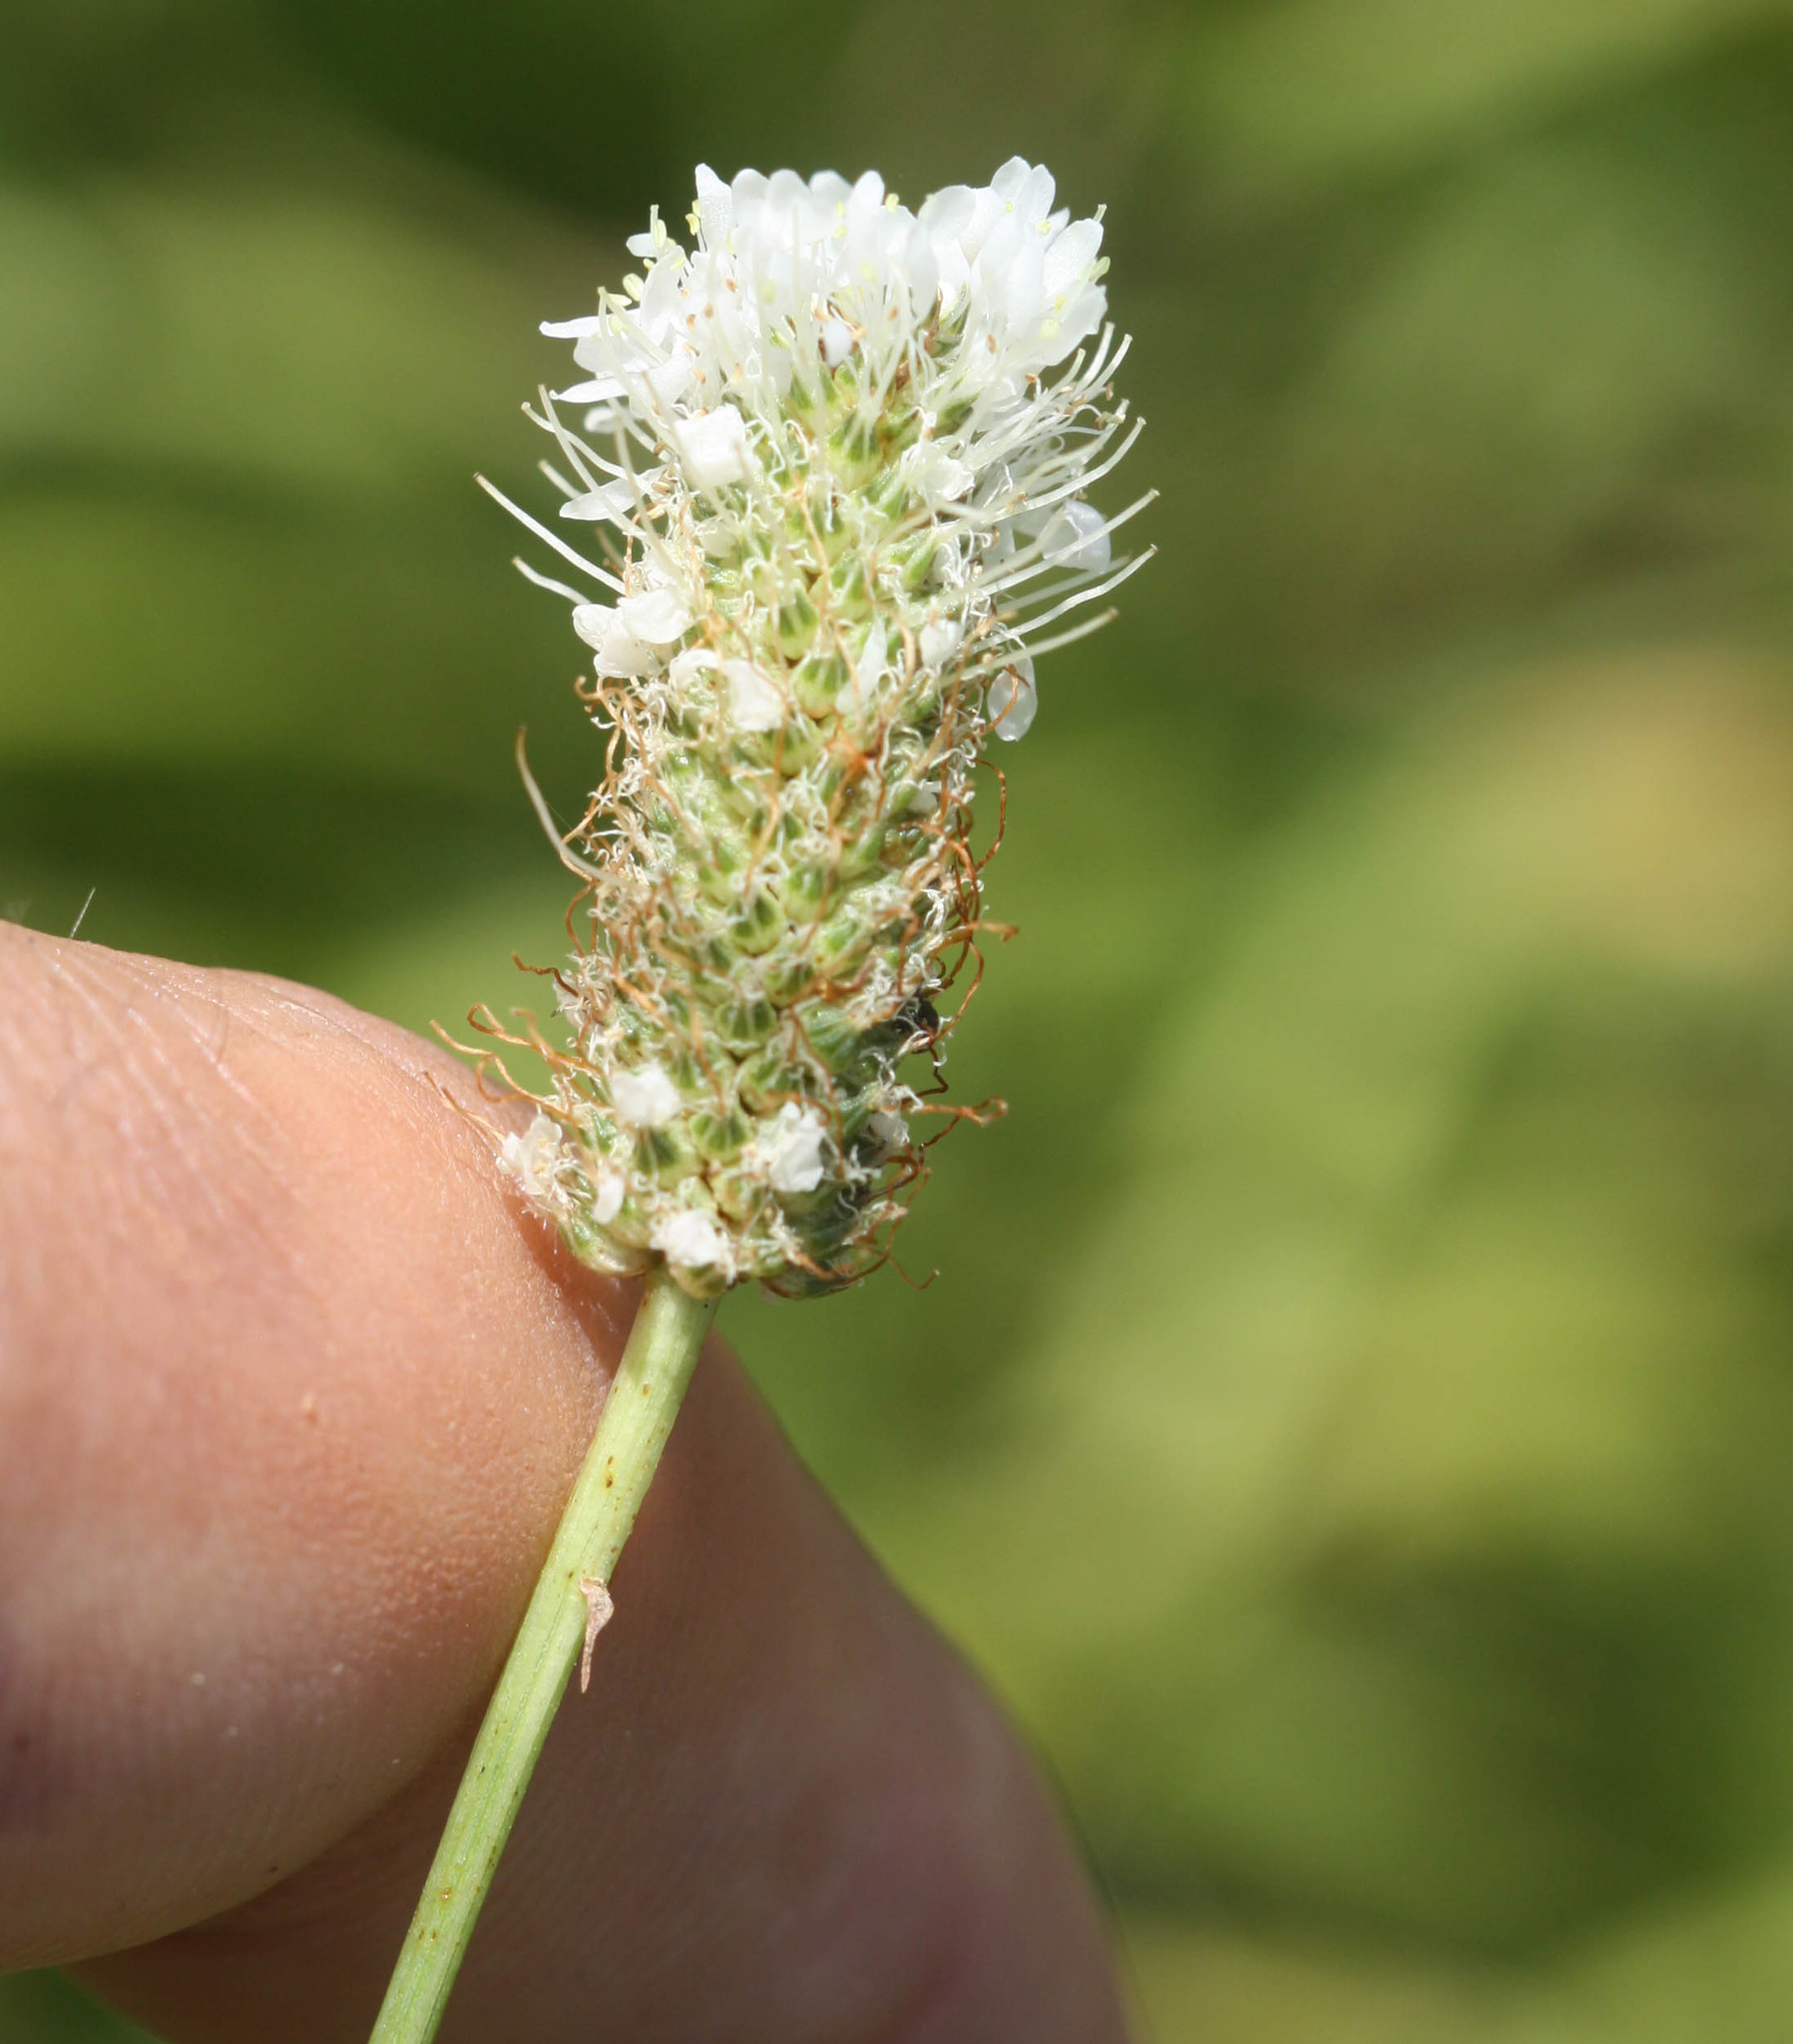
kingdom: Plantae
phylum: Tracheophyta
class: Magnoliopsida
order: Fabales
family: Fabaceae
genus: Dalea
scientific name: Dalea candida
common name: White prairie-clover
